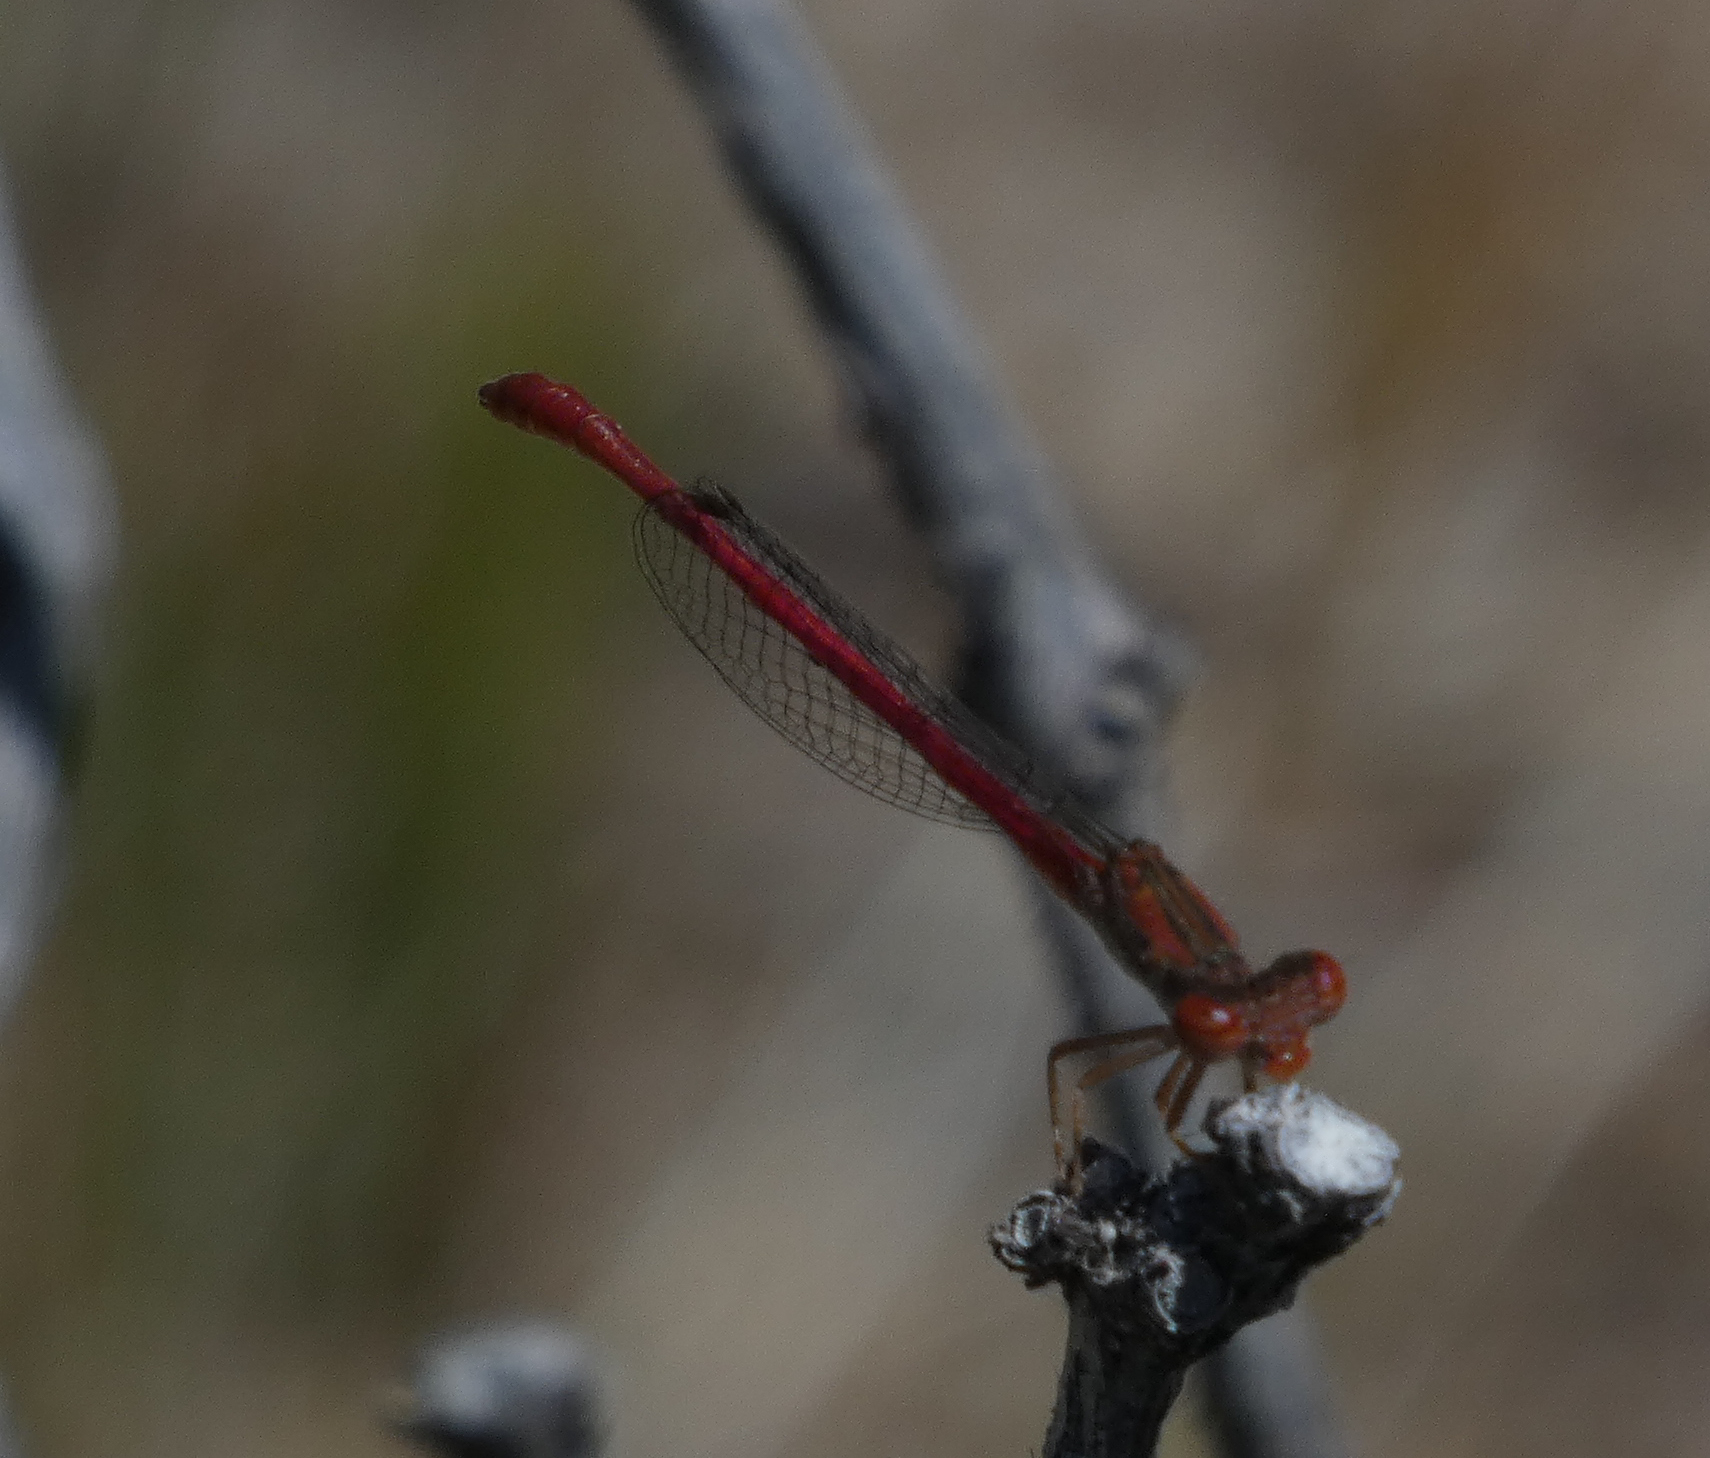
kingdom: Animalia
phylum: Arthropoda
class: Insecta
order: Odonata
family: Coenagrionidae
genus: Telebasis
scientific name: Telebasis salva
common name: Desert firetail
